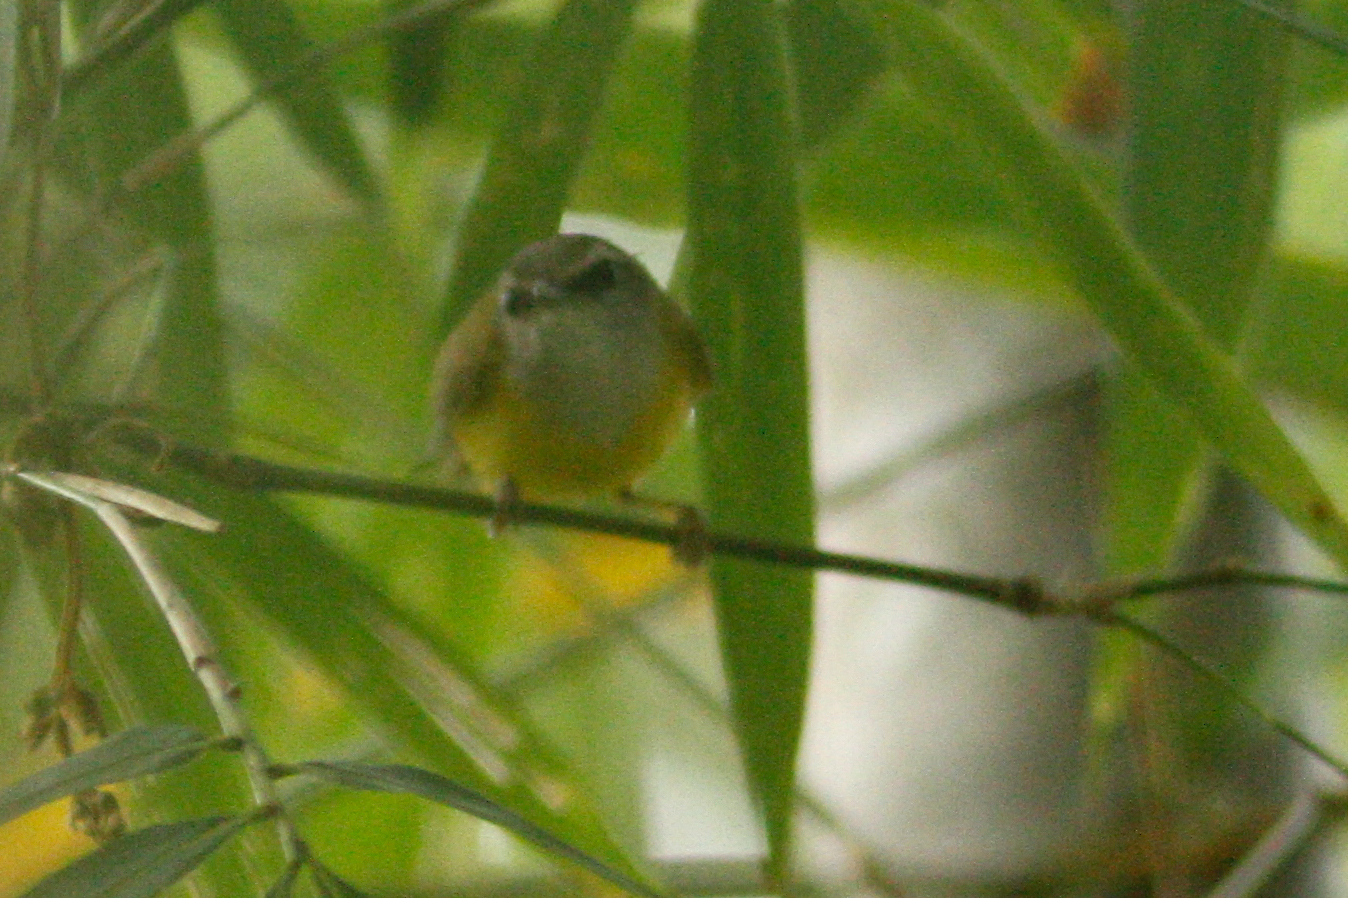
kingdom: Animalia
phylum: Chordata
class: Aves
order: Passeriformes
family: Cettiidae
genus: Abroscopus
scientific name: Abroscopus superciliaris
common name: Yellow-bellied warbler
